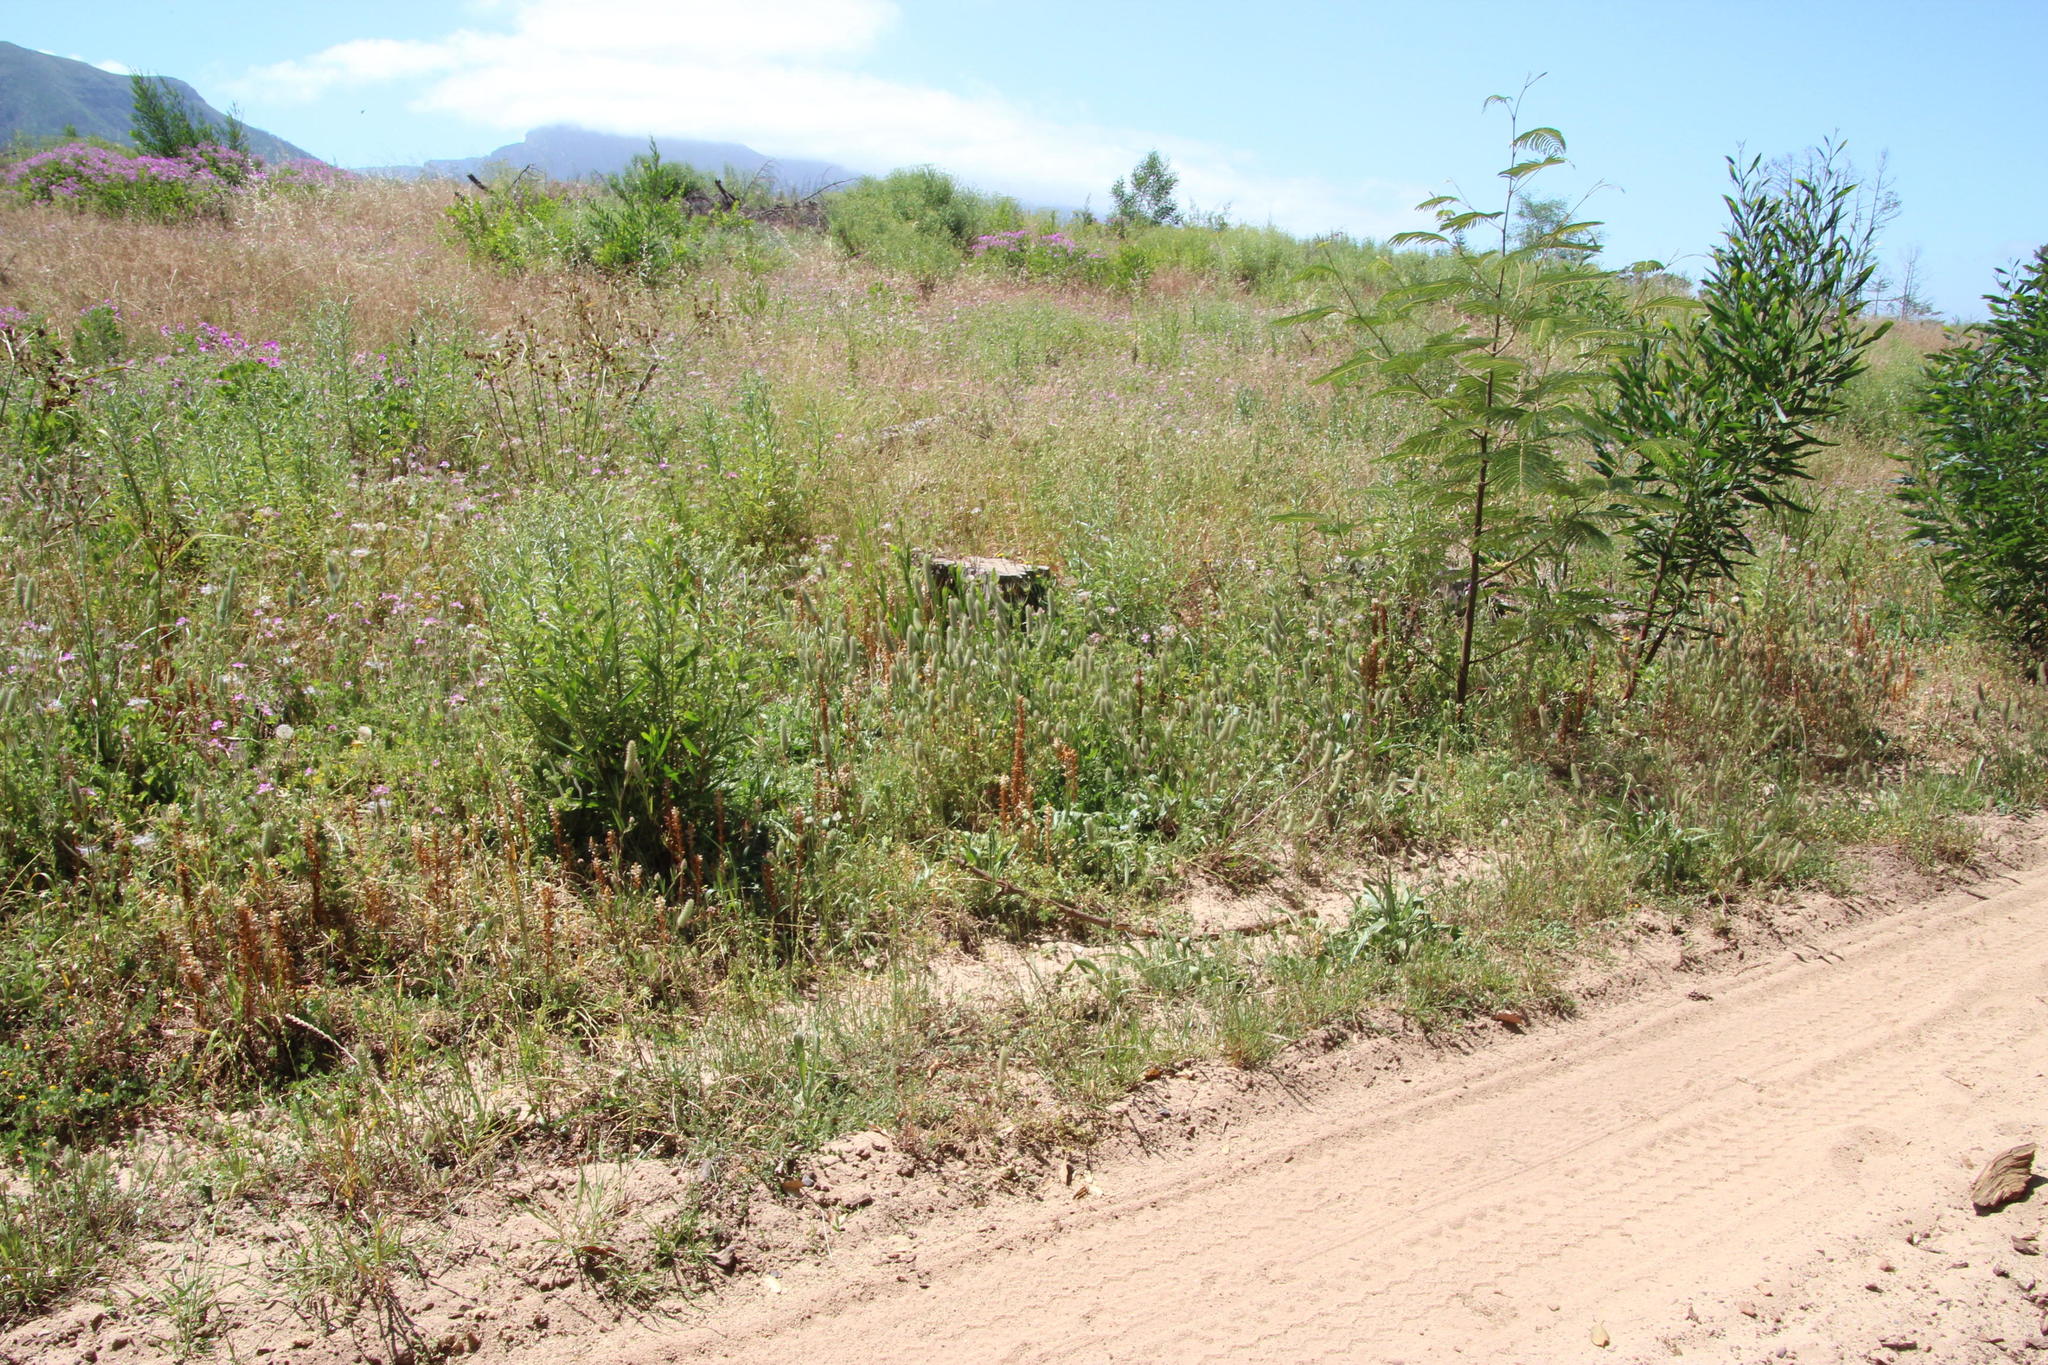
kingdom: Plantae
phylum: Tracheophyta
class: Magnoliopsida
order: Lamiales
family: Orobanchaceae
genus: Orobanche
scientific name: Orobanche minor
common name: Common broomrape
